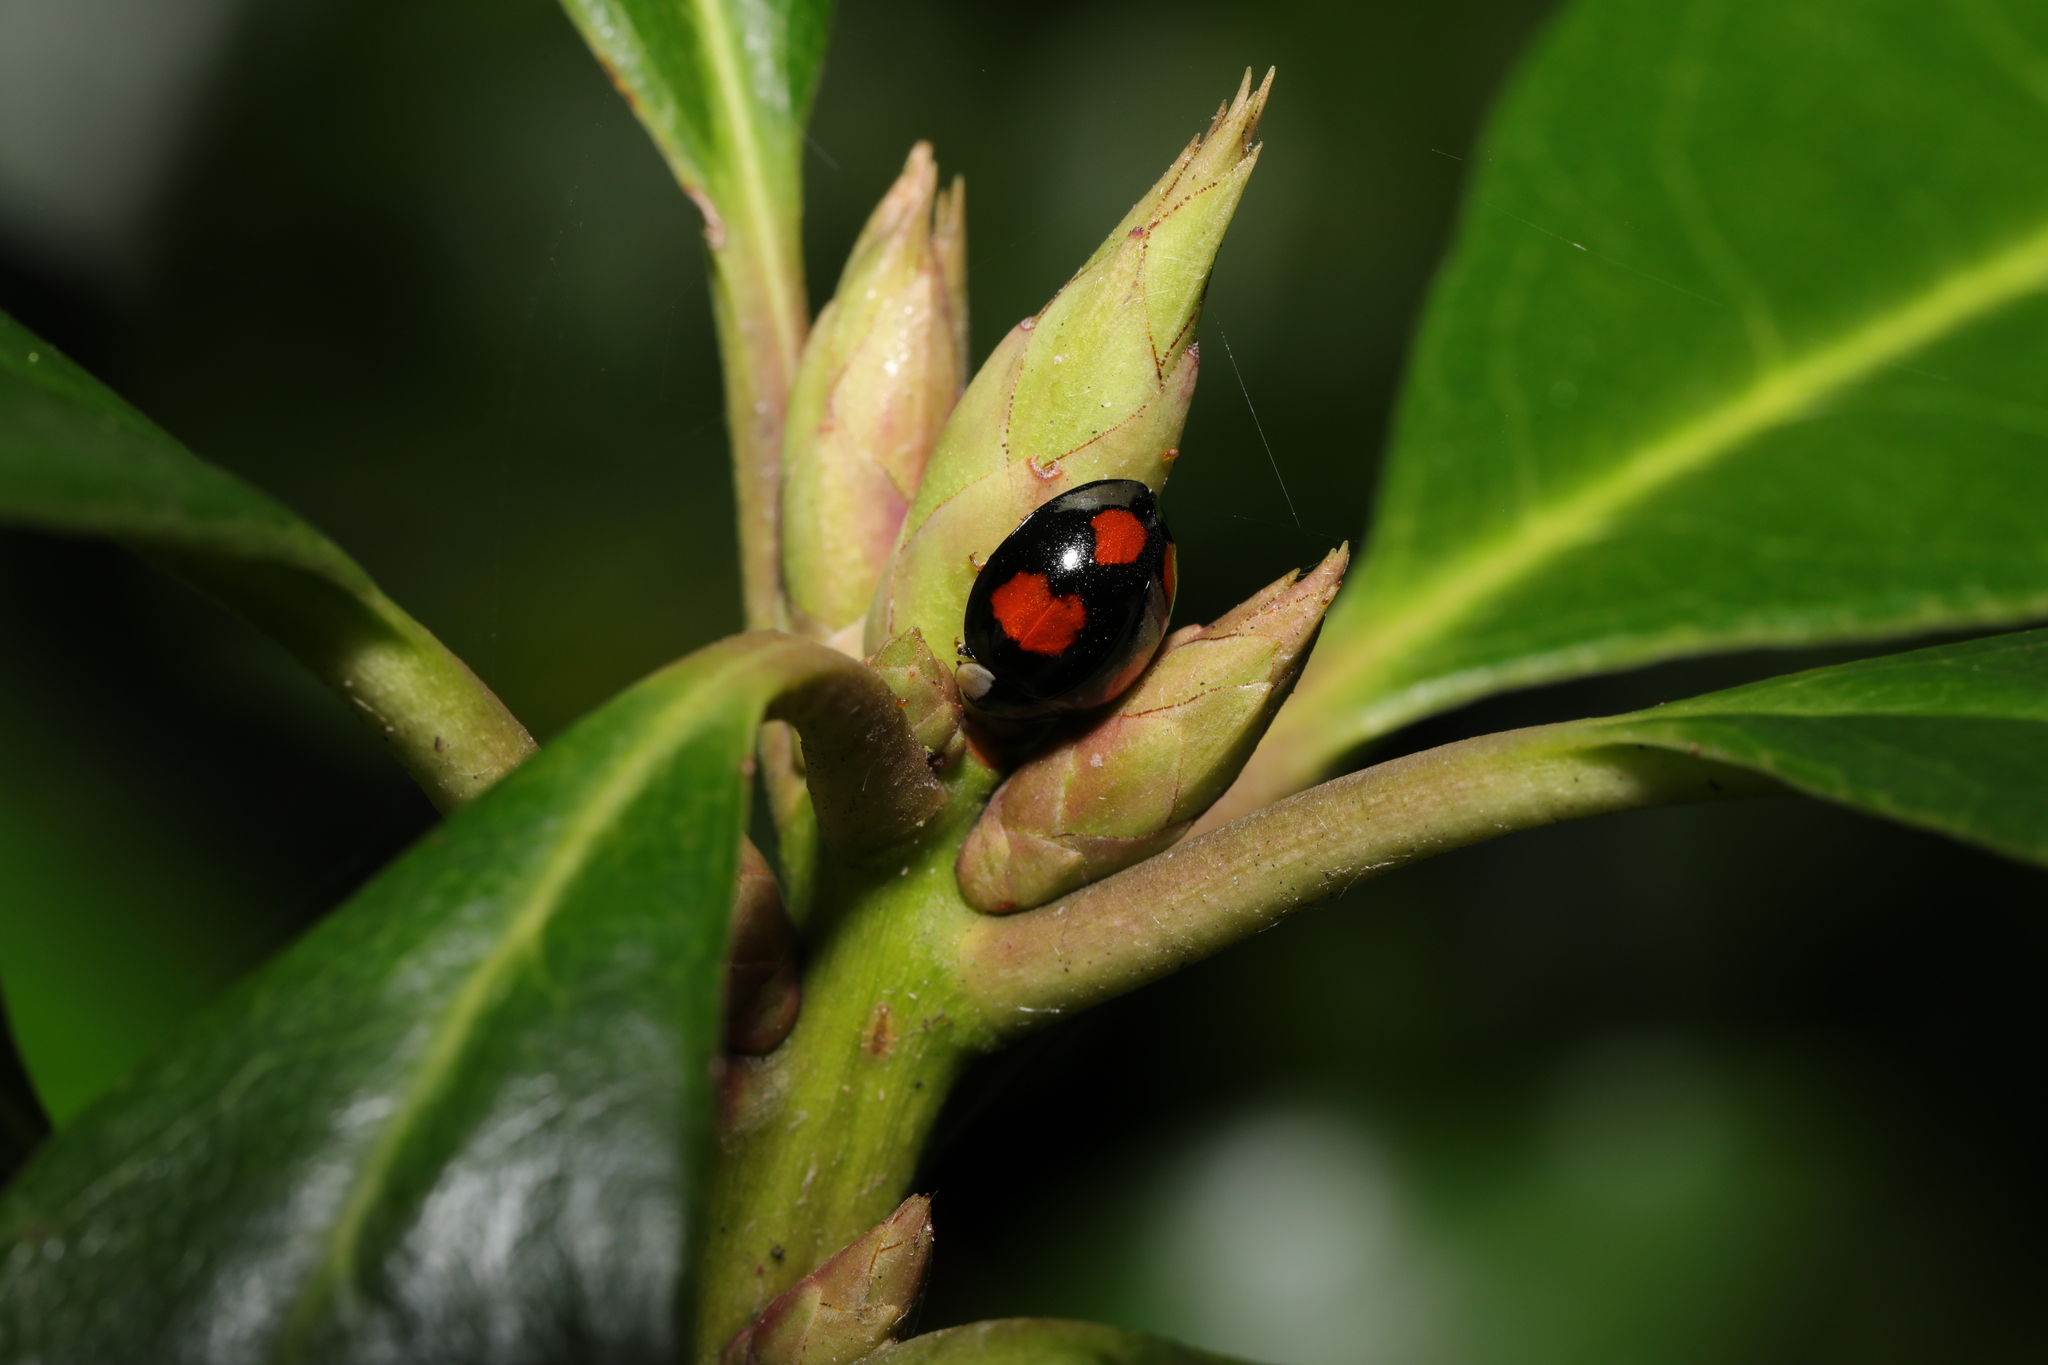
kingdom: Animalia
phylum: Arthropoda
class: Insecta
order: Coleoptera
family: Coccinellidae
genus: Harmonia
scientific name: Harmonia axyridis
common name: Harlequin ladybird
